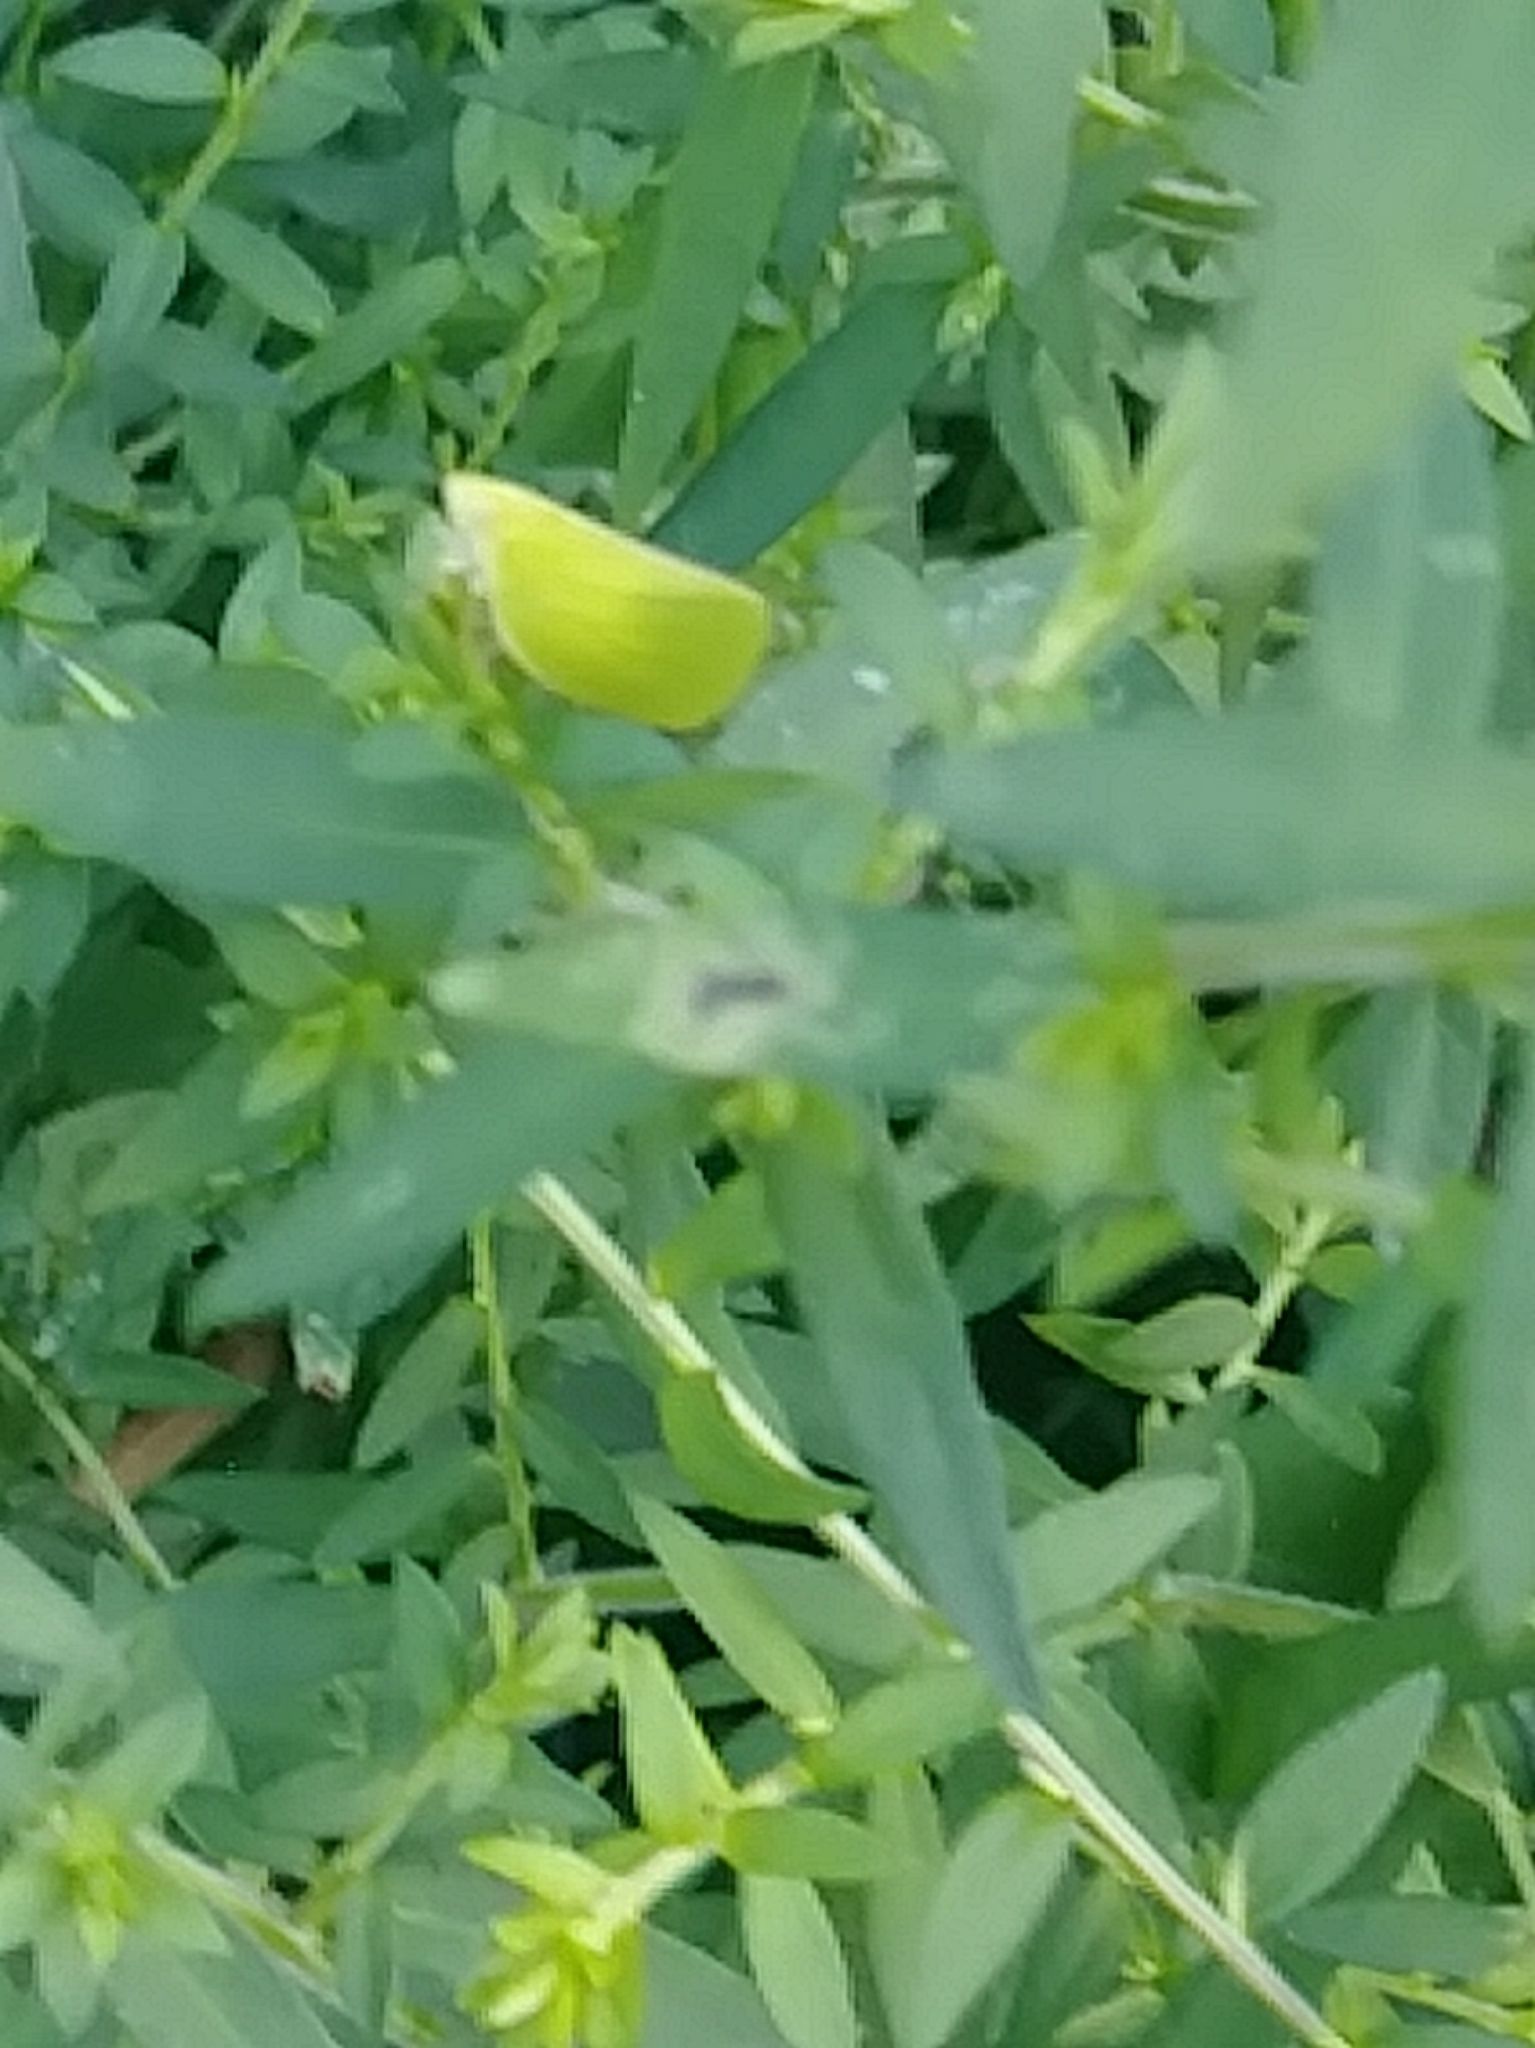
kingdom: Animalia
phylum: Arthropoda
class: Insecta
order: Hemiptera
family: Acanaloniidae
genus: Acanalonia
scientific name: Acanalonia conica
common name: Green cone-headed planthopper
